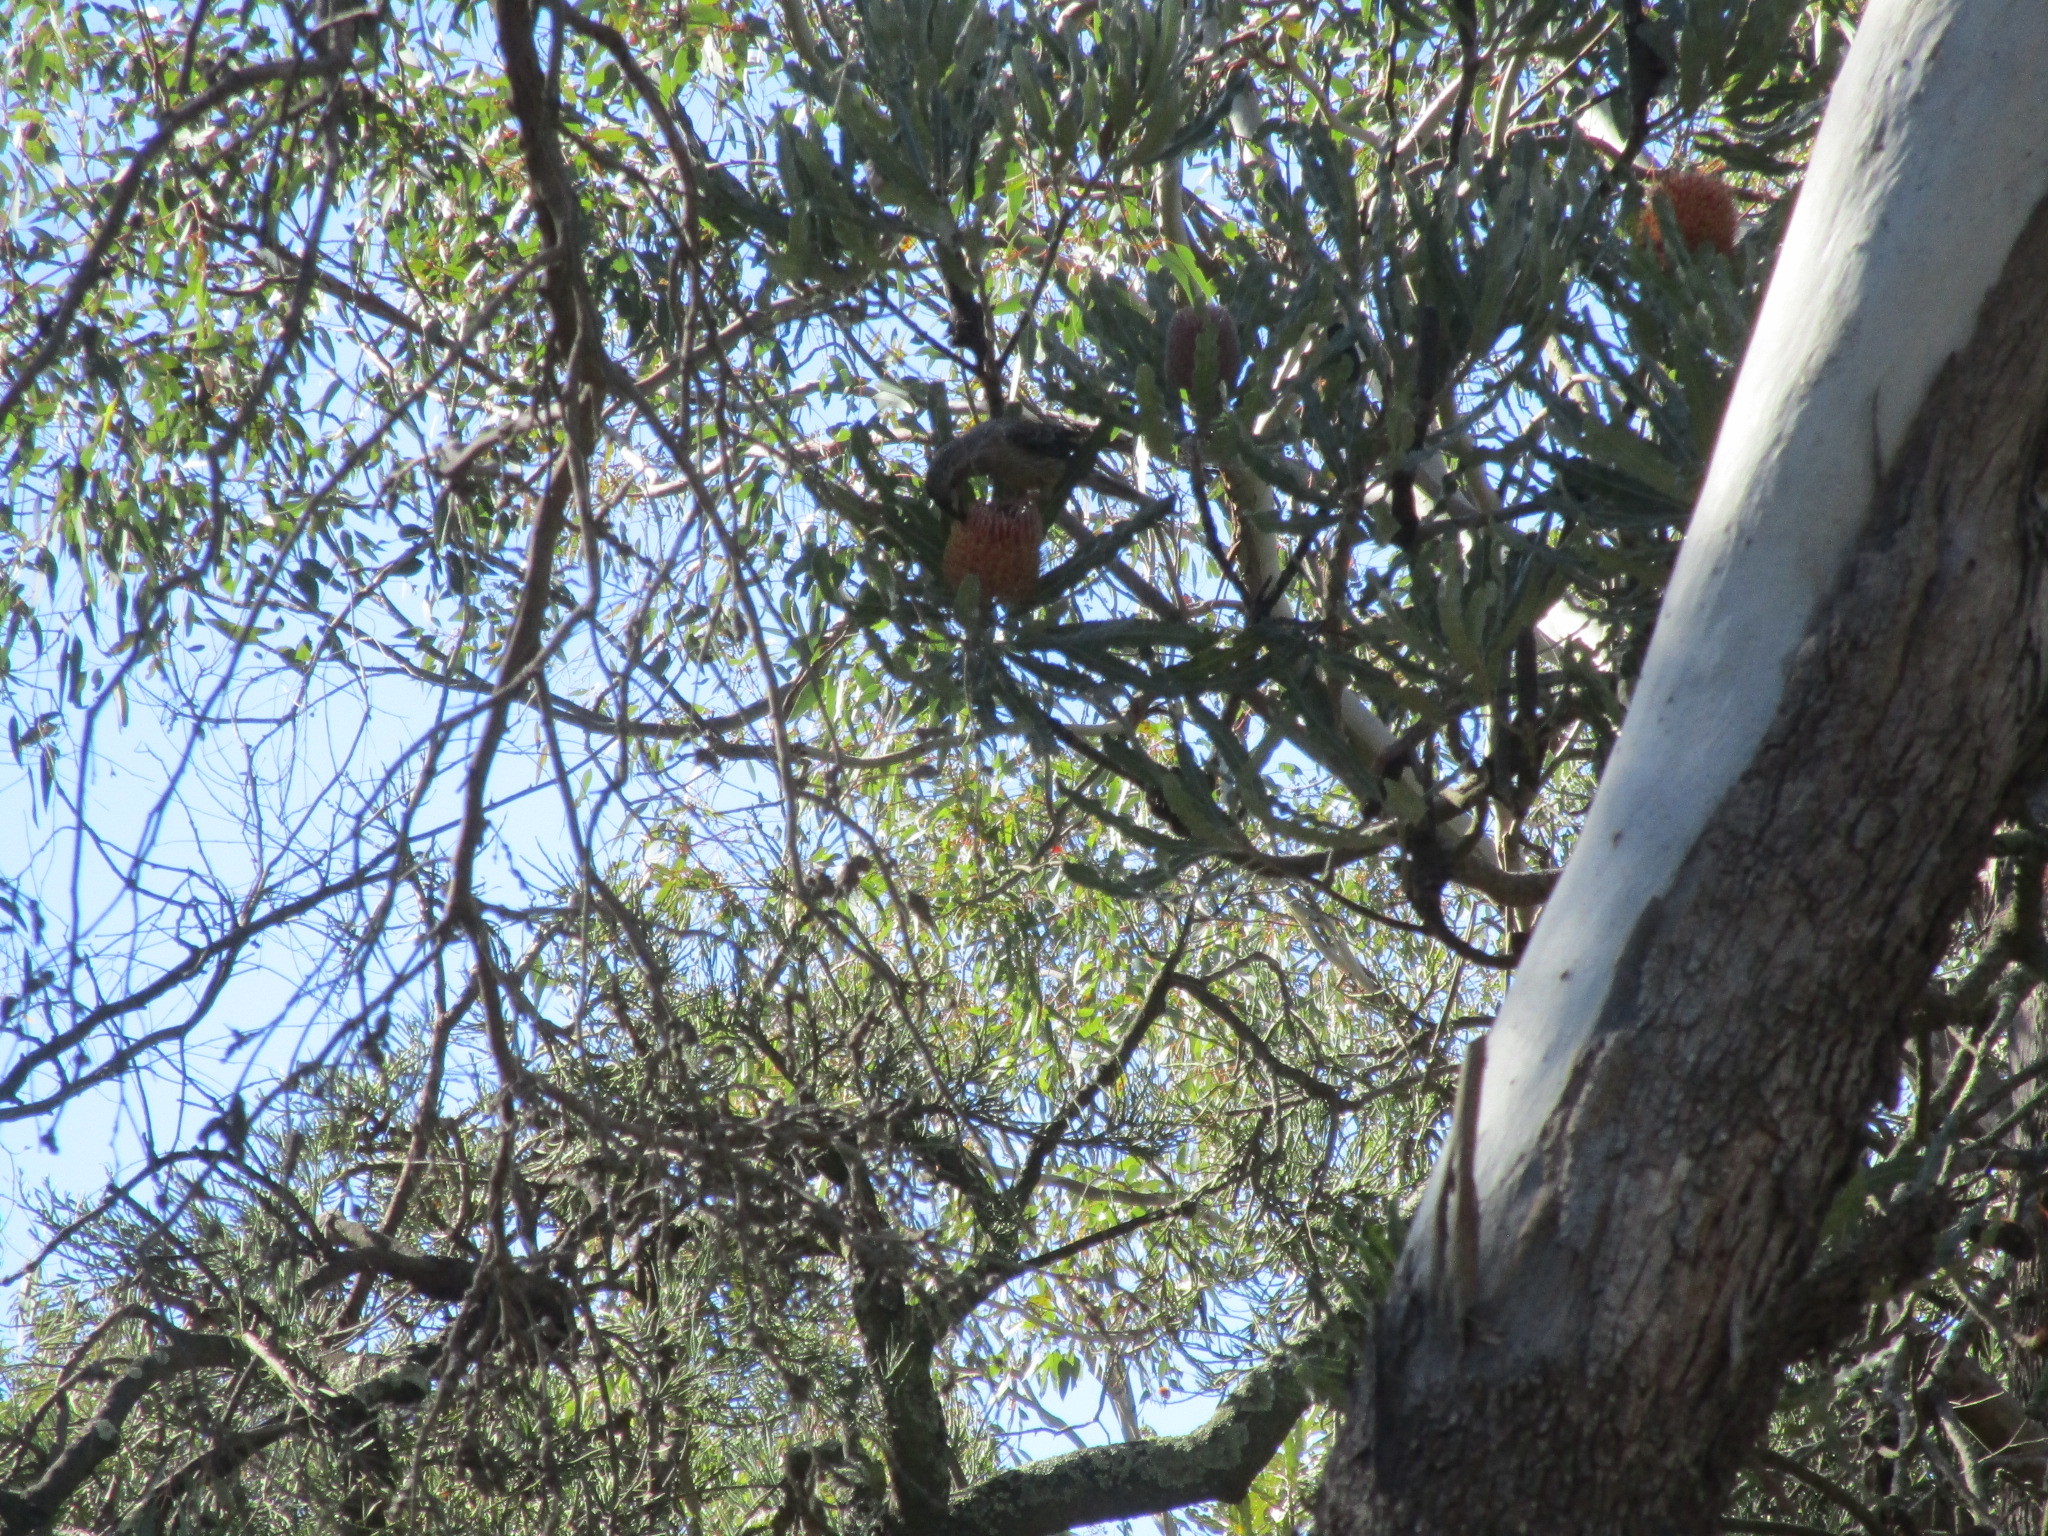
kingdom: Animalia
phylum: Chordata
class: Aves
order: Passeriformes
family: Meliphagidae
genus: Anthochaera
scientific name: Anthochaera carunculata
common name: Red wattlebird
